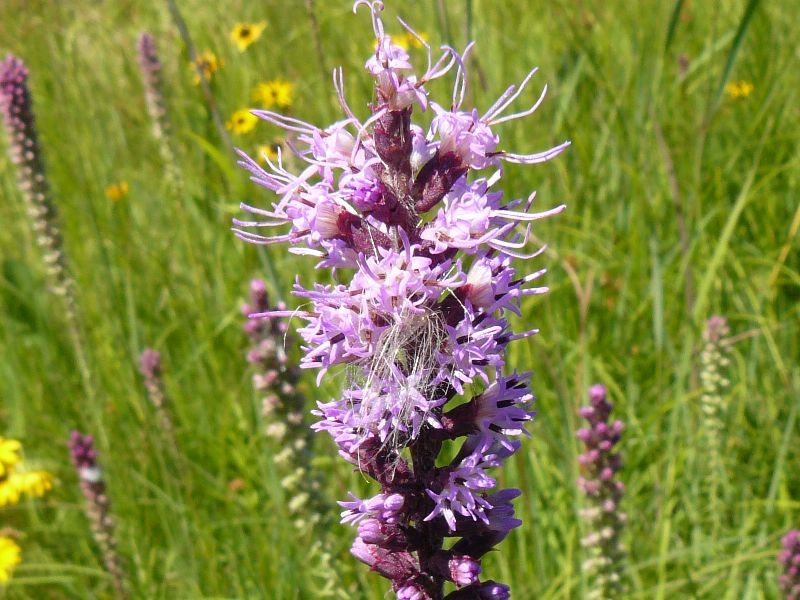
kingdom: Plantae
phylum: Tracheophyta
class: Magnoliopsida
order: Asterales
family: Asteraceae
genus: Liatris
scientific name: Liatris pycnostachya
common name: Cattail gayfeather
